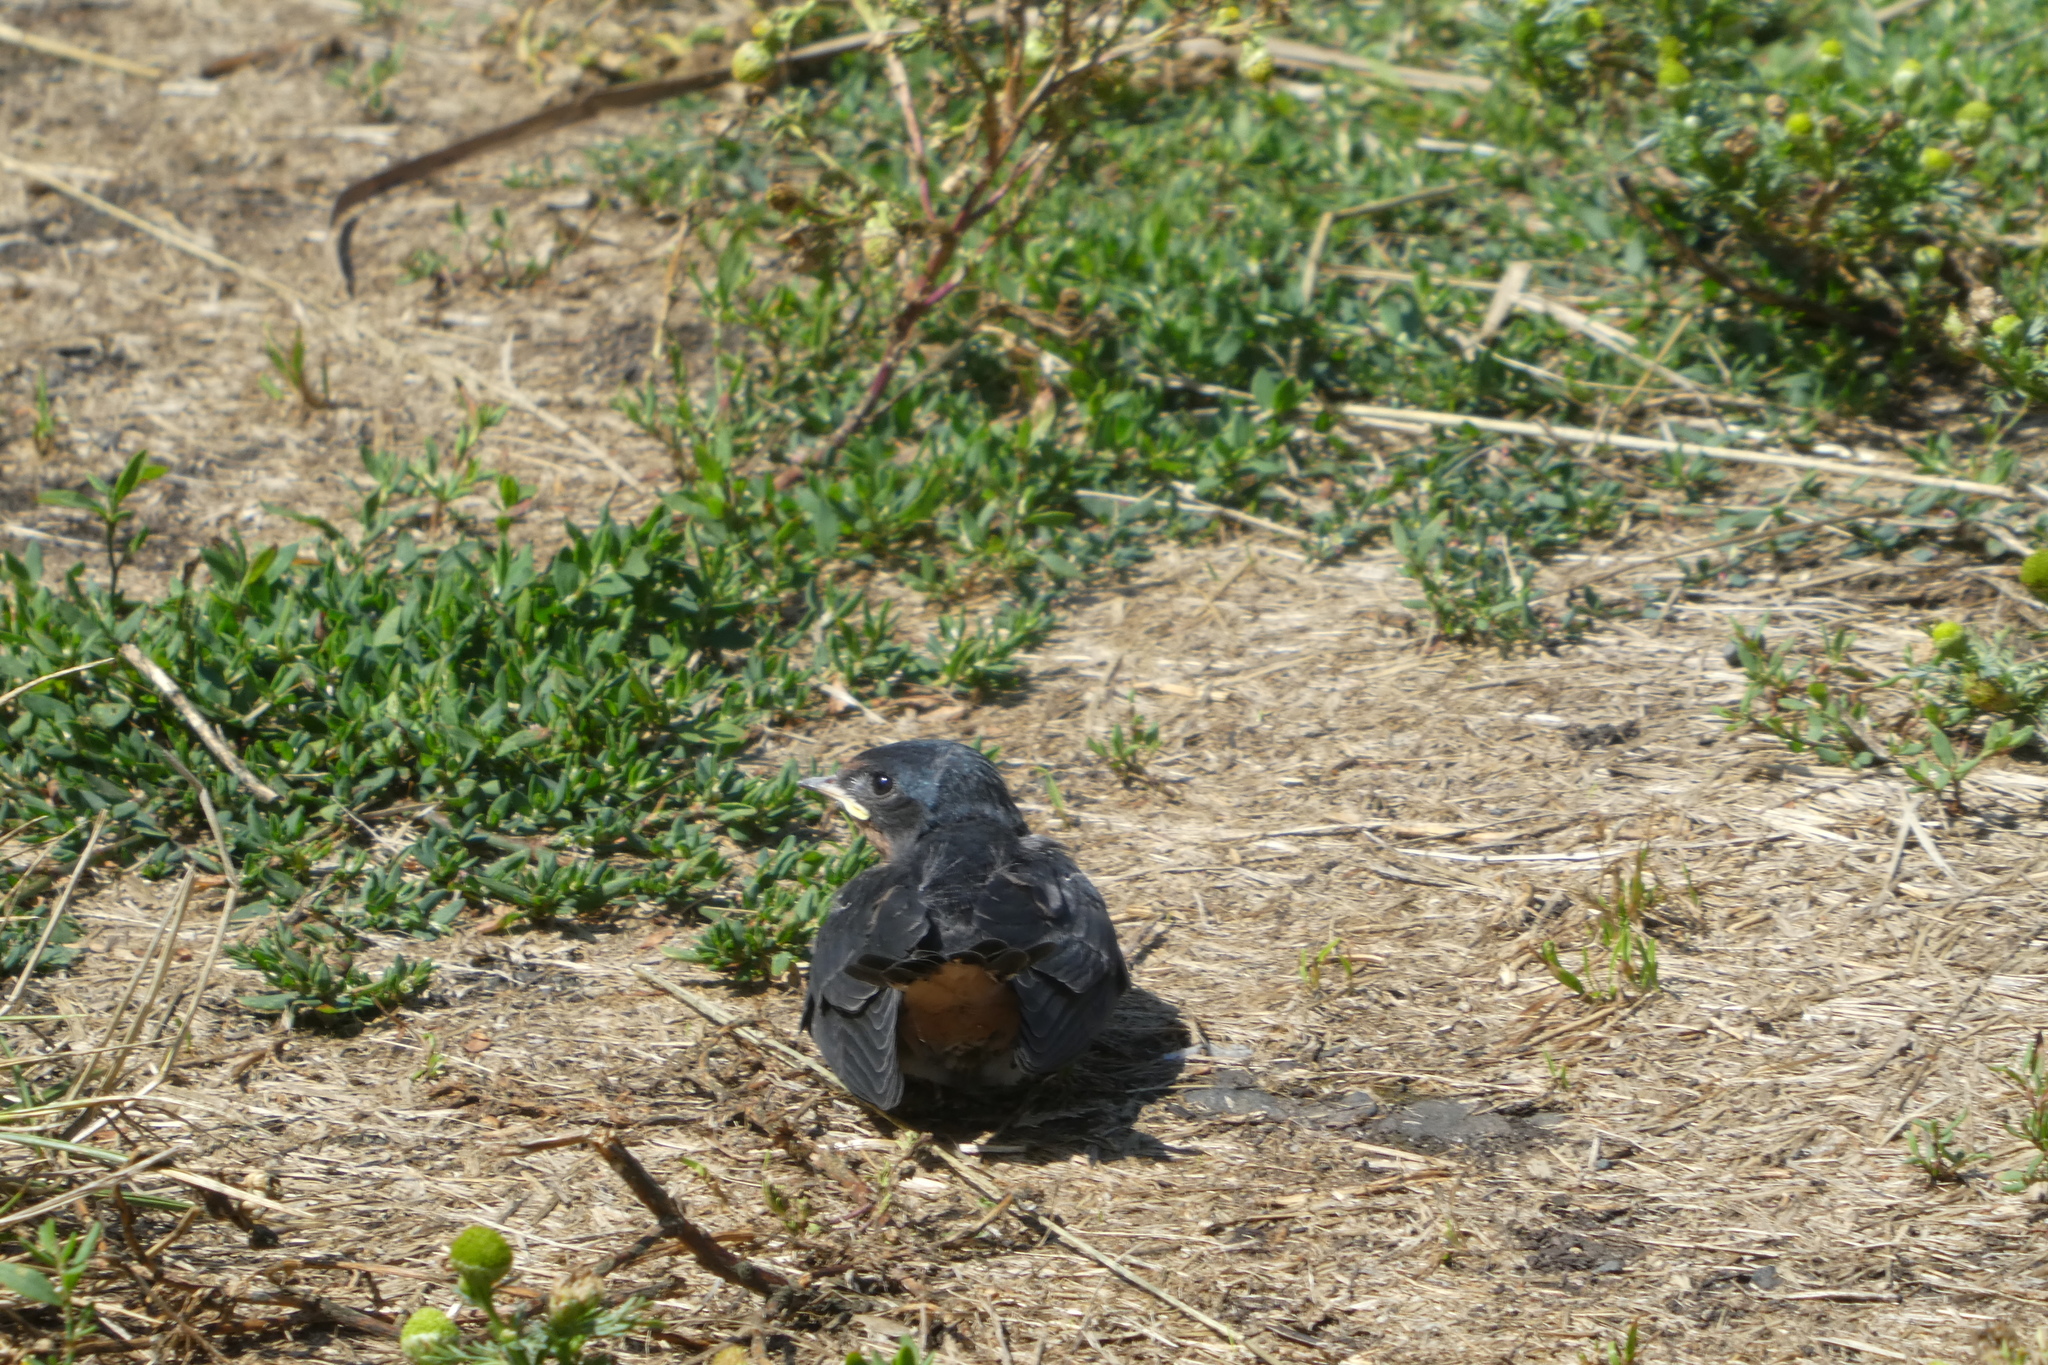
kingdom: Animalia
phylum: Chordata
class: Aves
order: Passeriformes
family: Hirundinidae
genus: Hirundo
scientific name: Hirundo rustica
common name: Barn swallow
